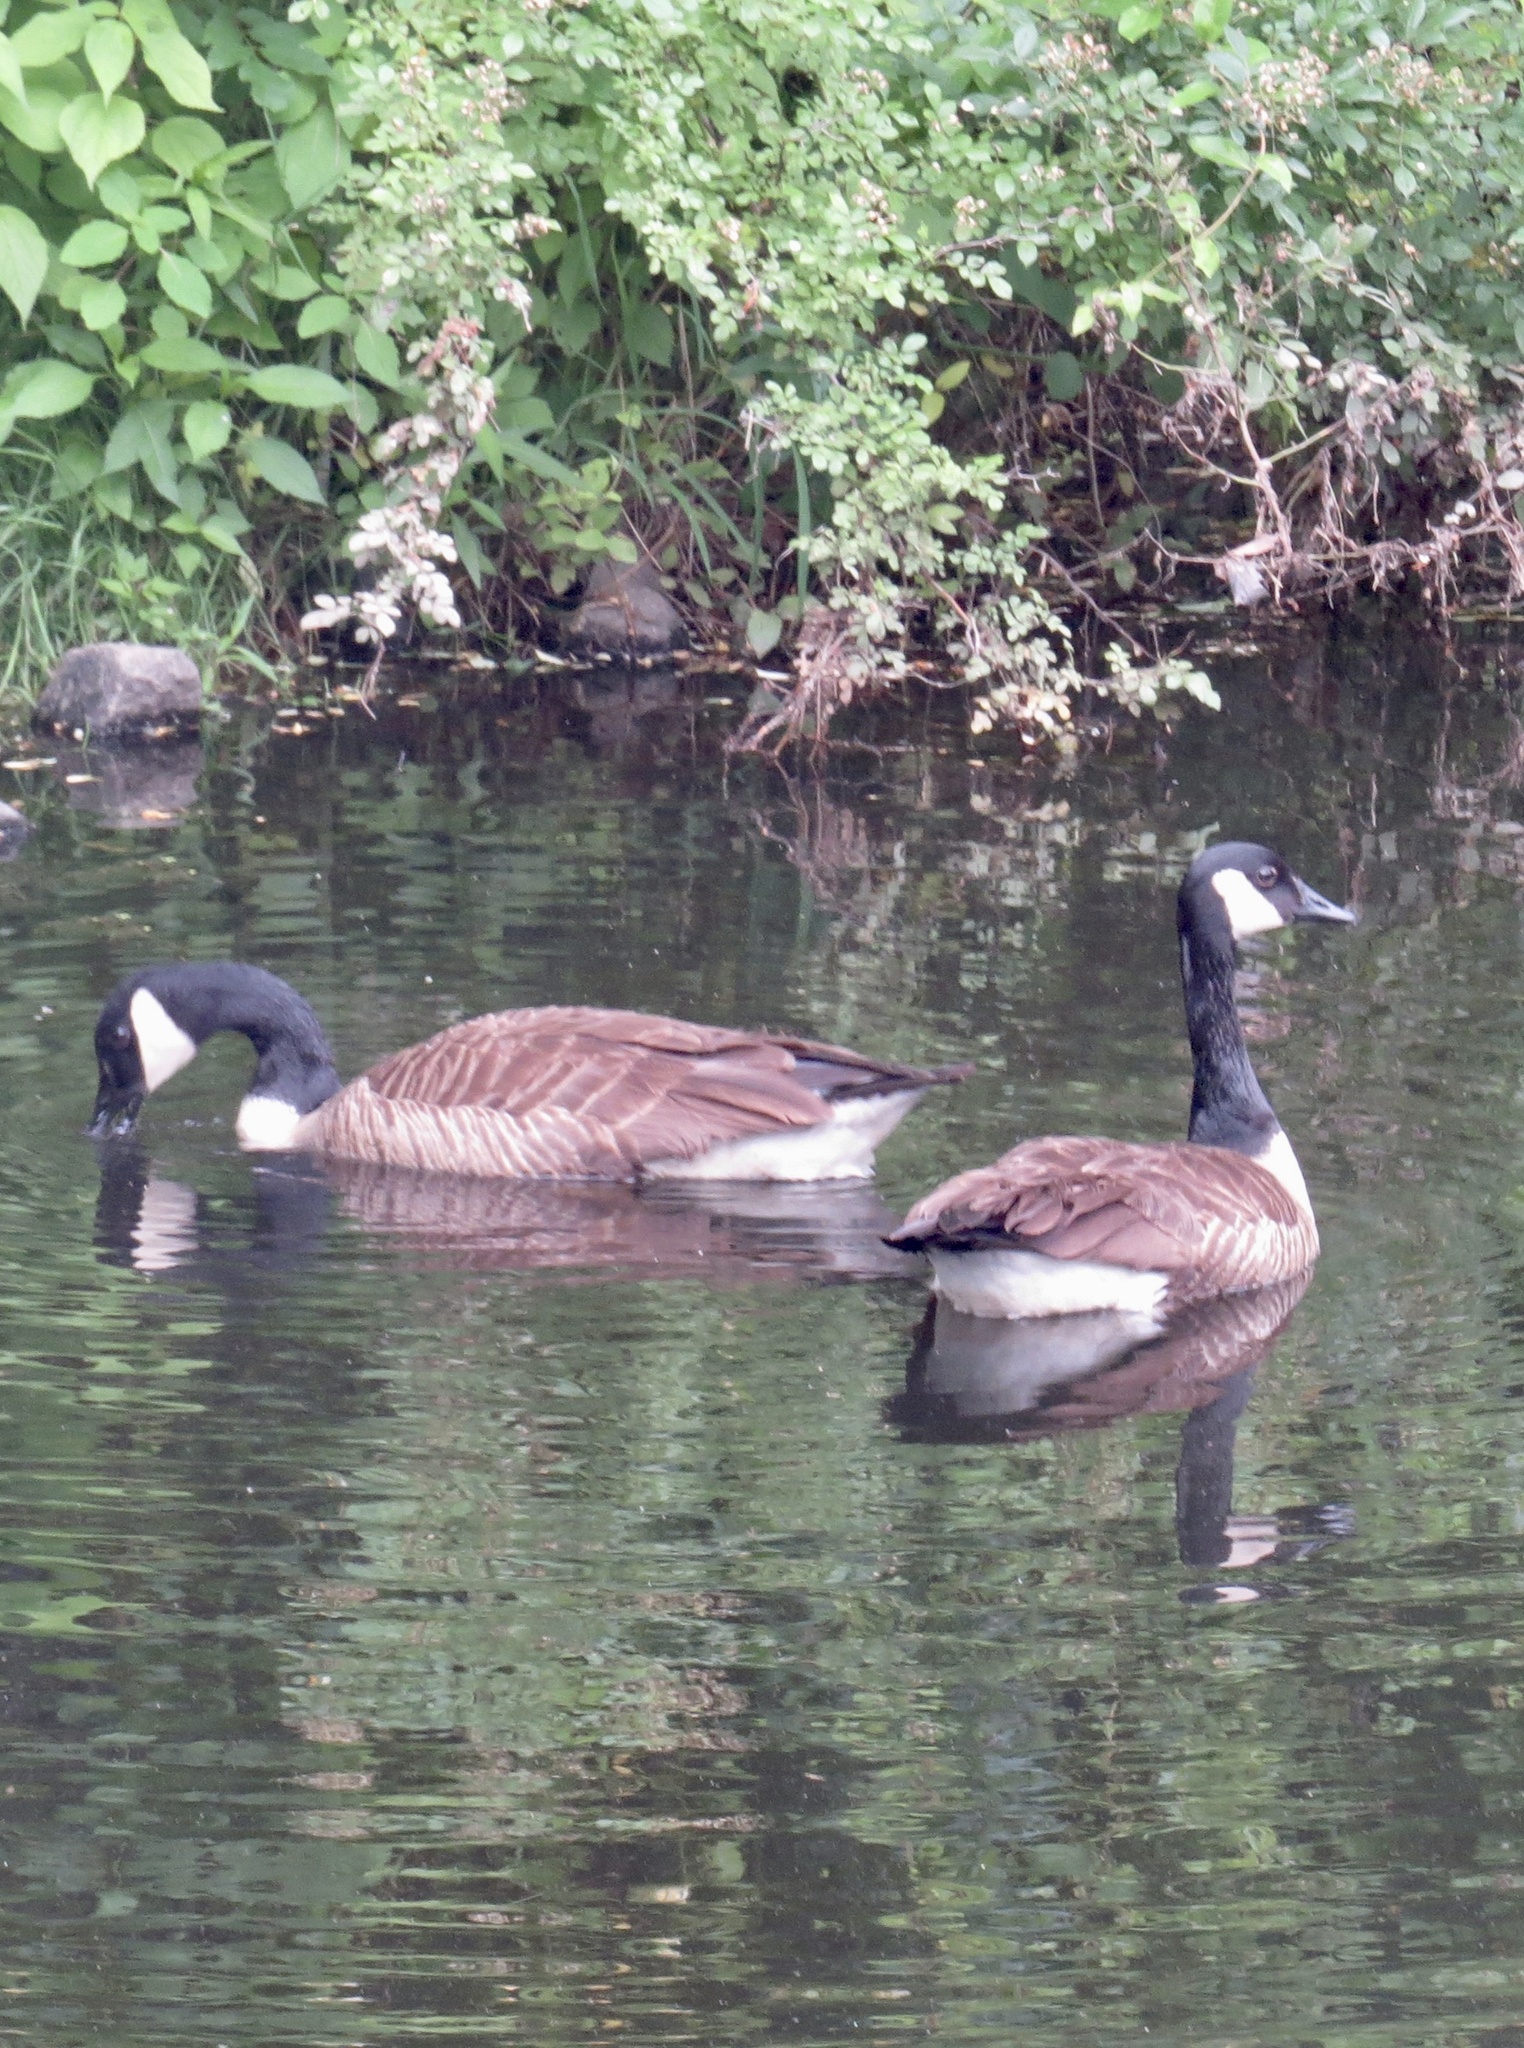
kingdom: Animalia
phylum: Chordata
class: Aves
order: Anseriformes
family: Anatidae
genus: Branta
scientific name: Branta canadensis
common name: Canada goose
